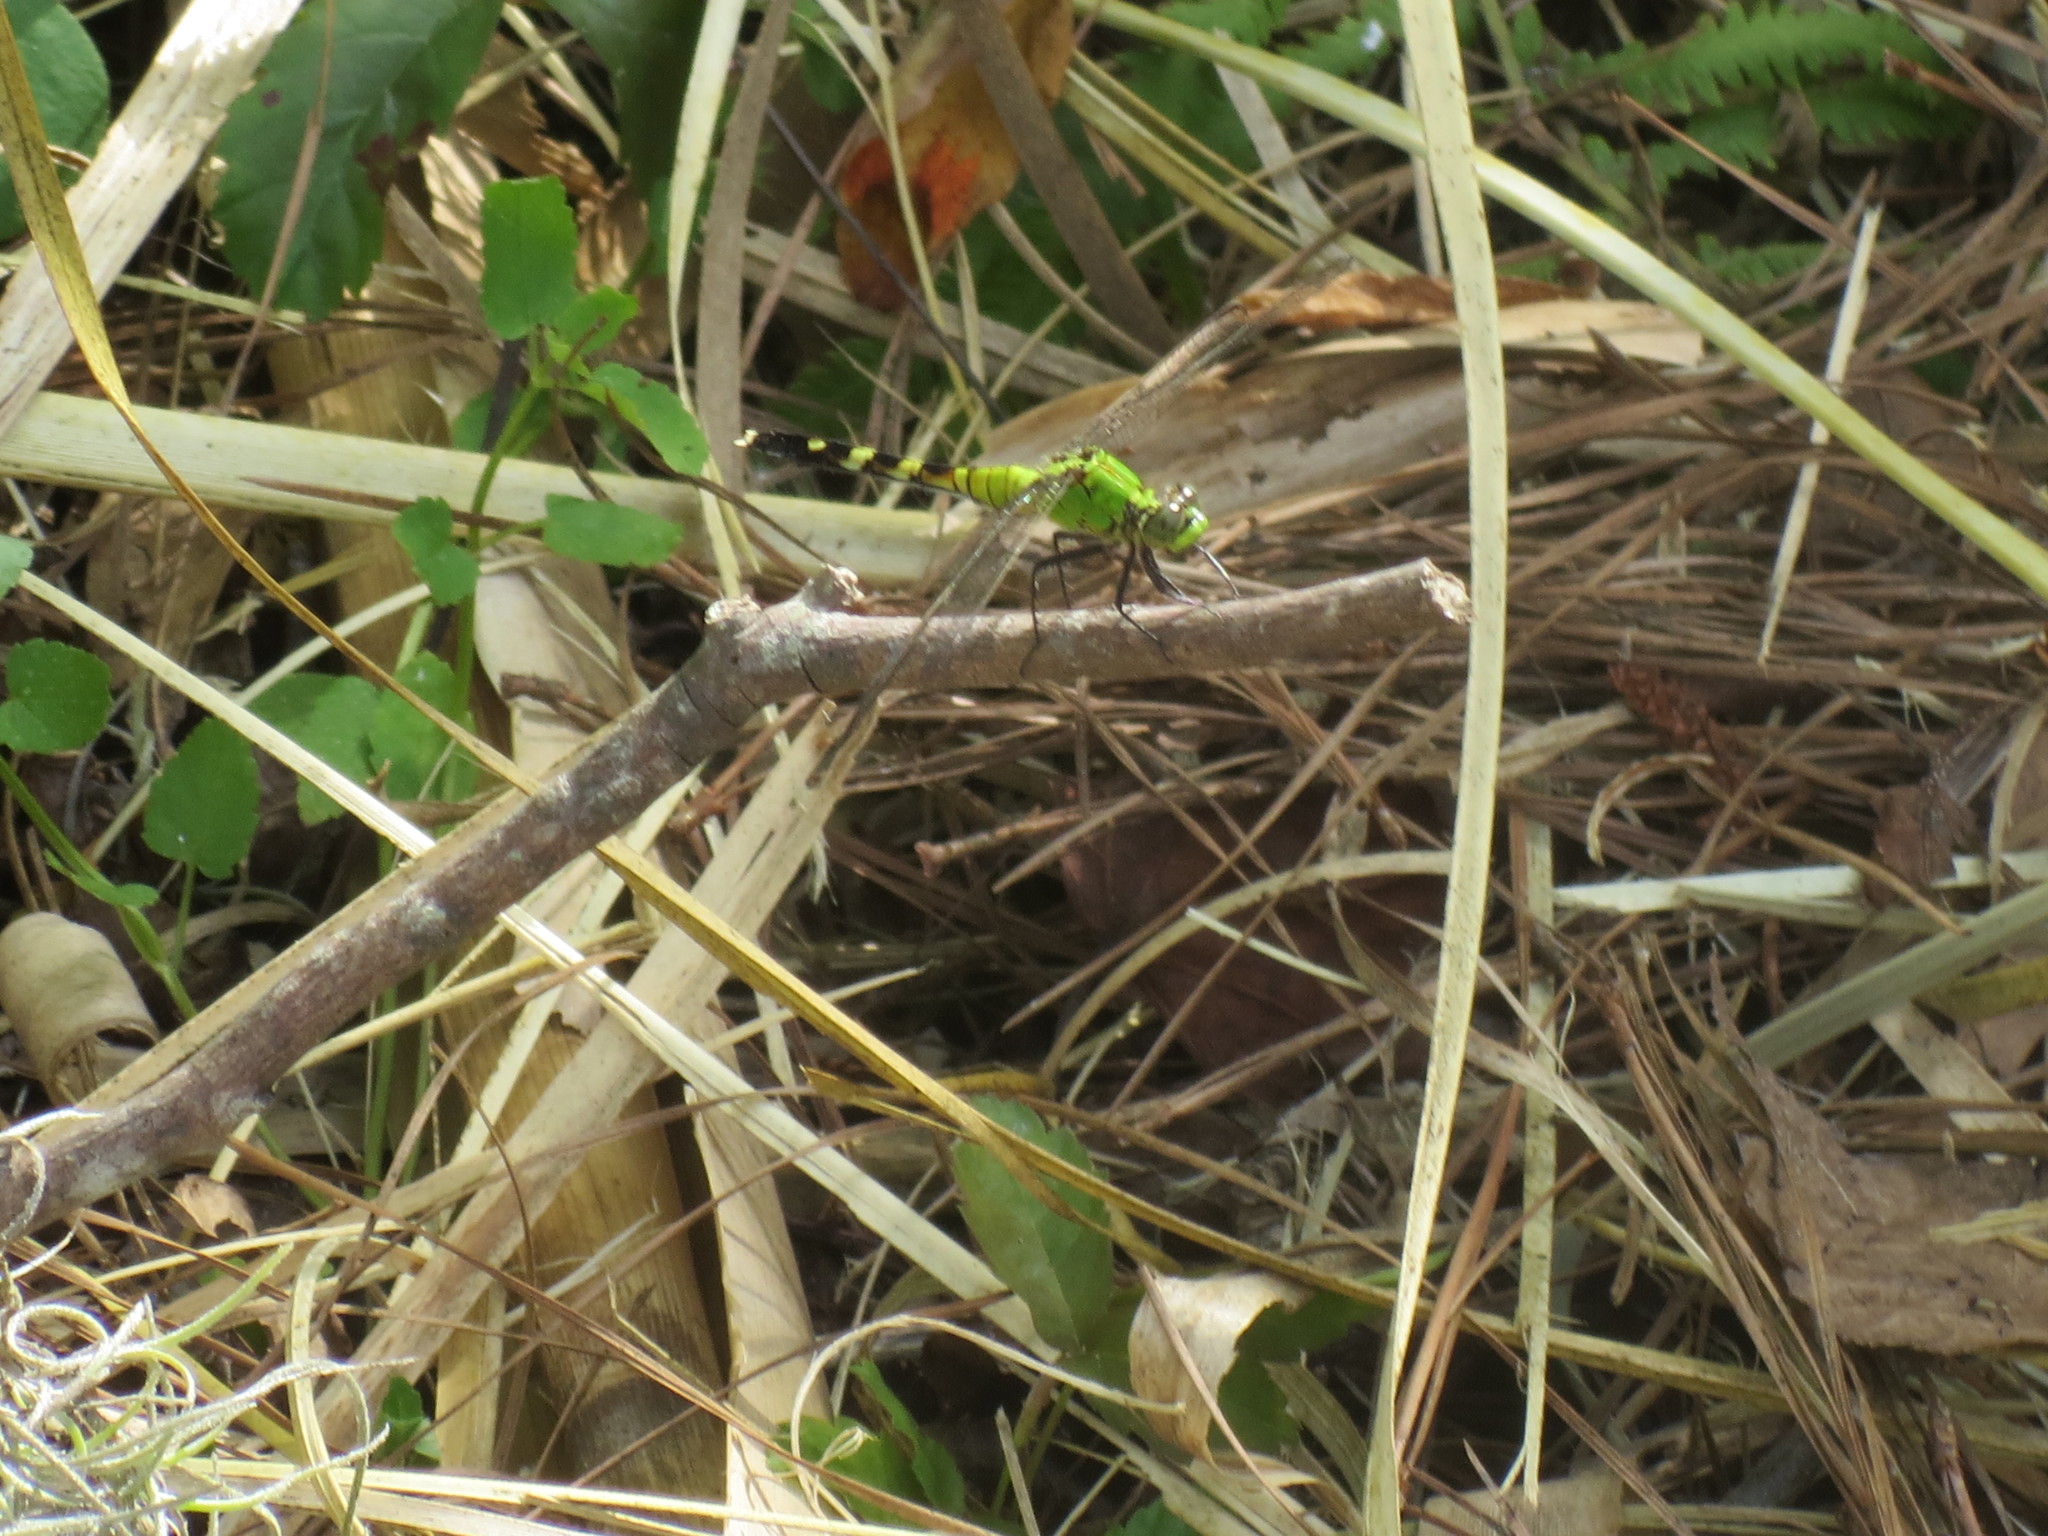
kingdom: Animalia
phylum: Arthropoda
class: Insecta
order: Odonata
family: Libellulidae
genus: Erythemis
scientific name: Erythemis simplicicollis
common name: Eastern pondhawk
